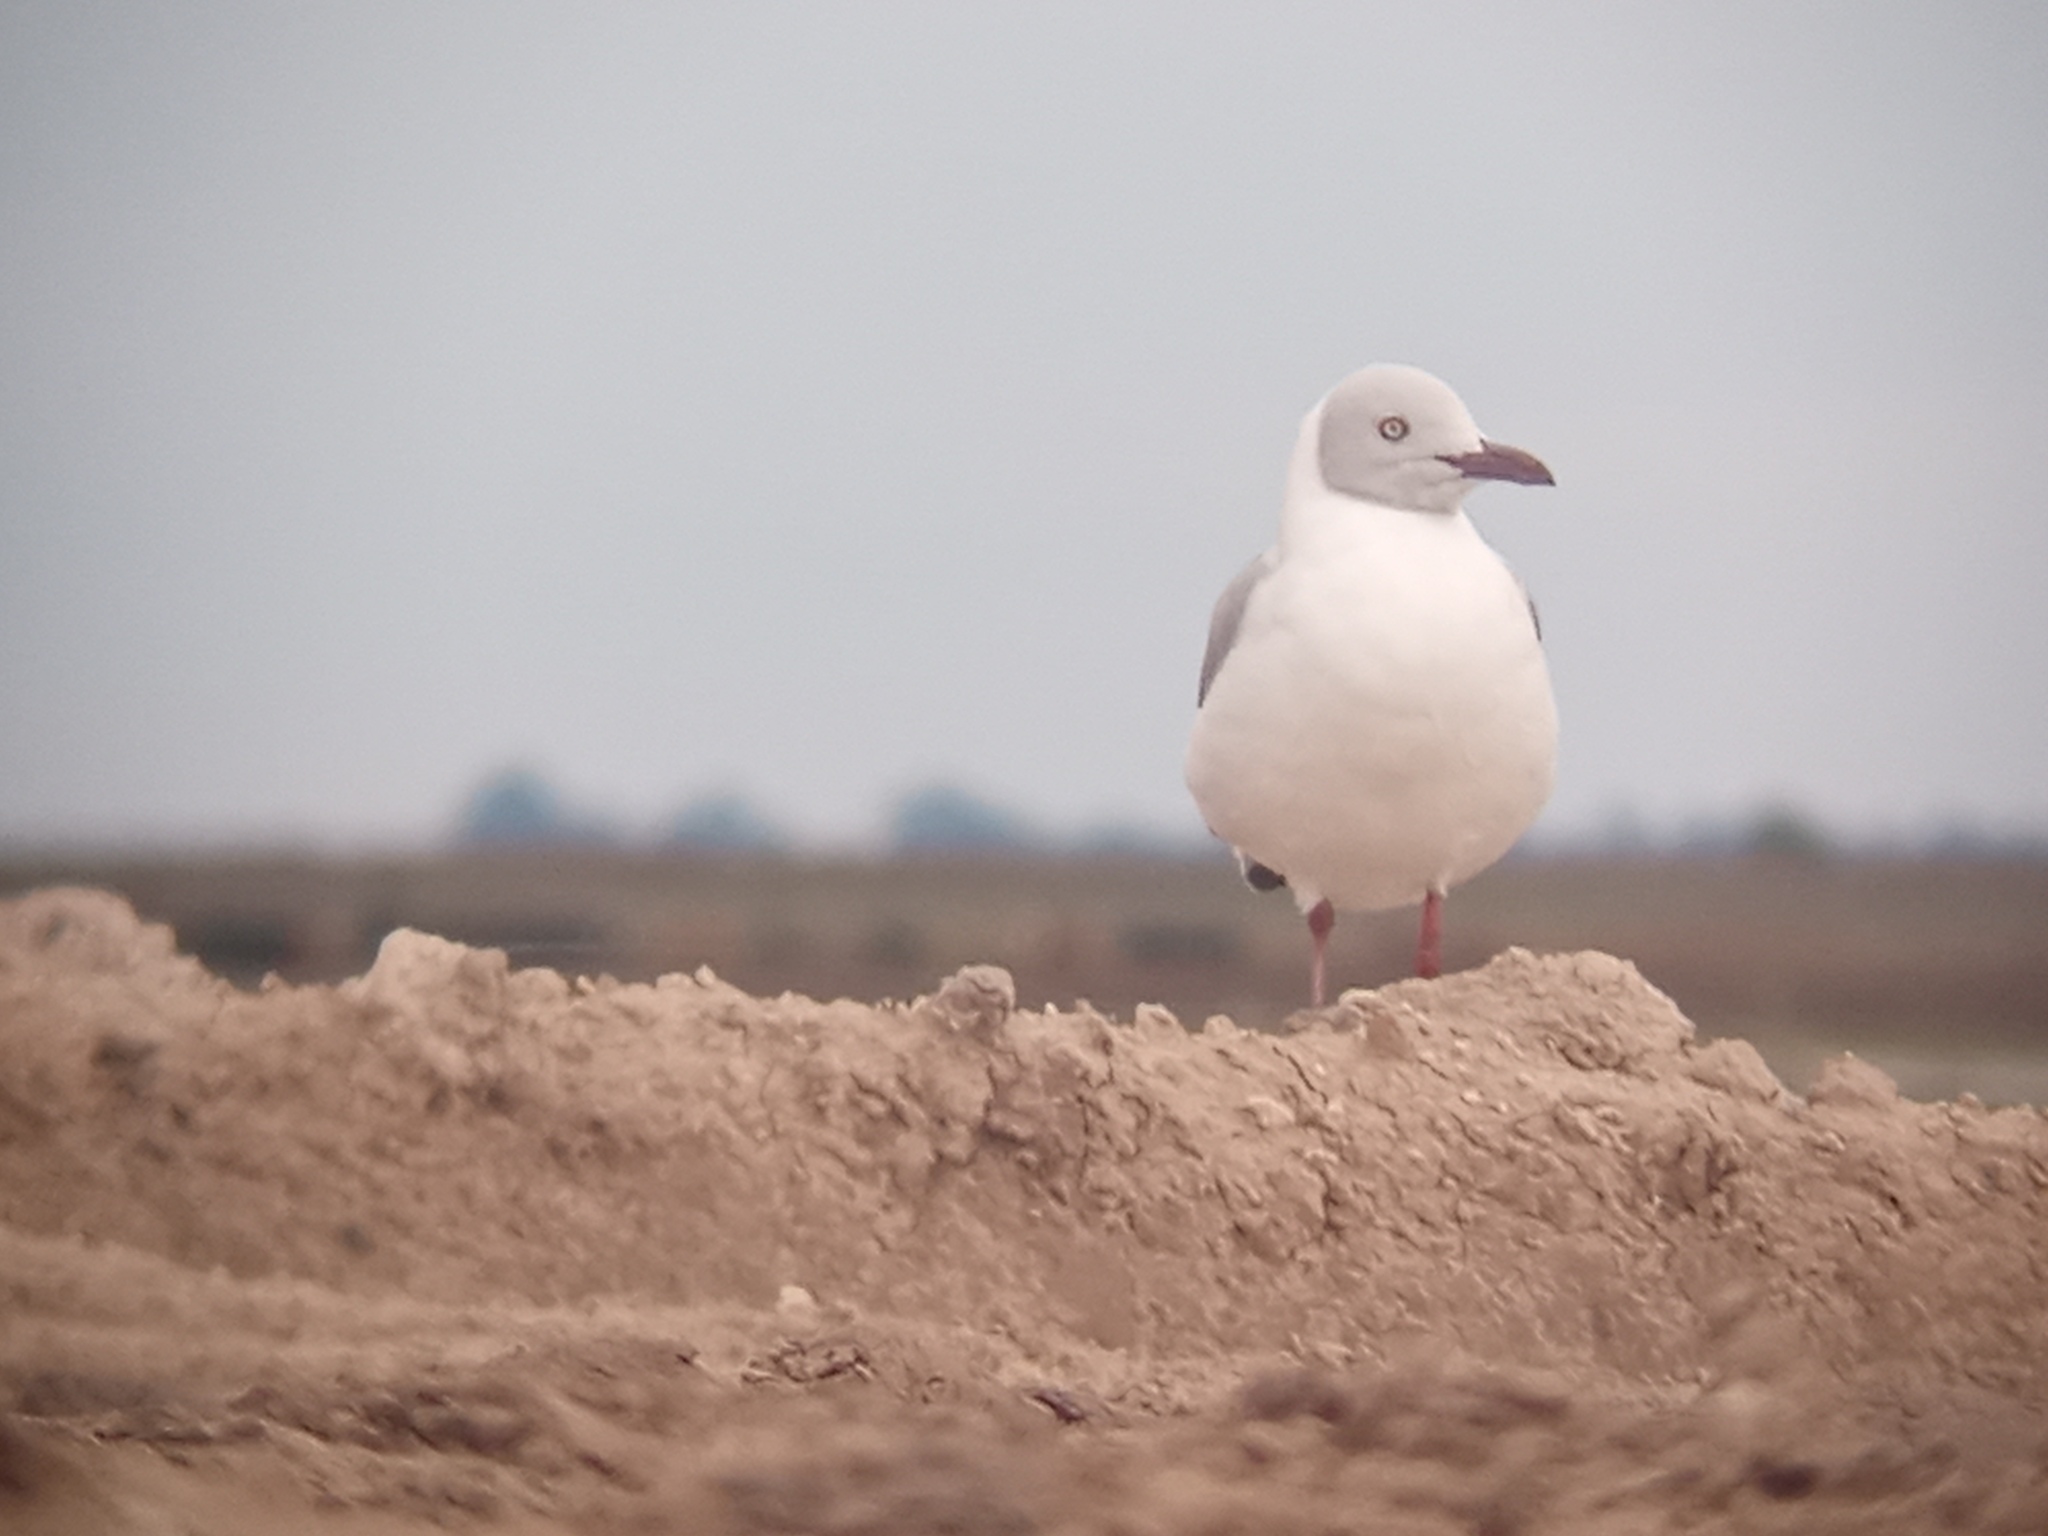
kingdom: Animalia
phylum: Chordata
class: Aves
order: Charadriiformes
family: Laridae
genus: Chroicocephalus
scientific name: Chroicocephalus cirrocephalus
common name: Grey-headed gull
